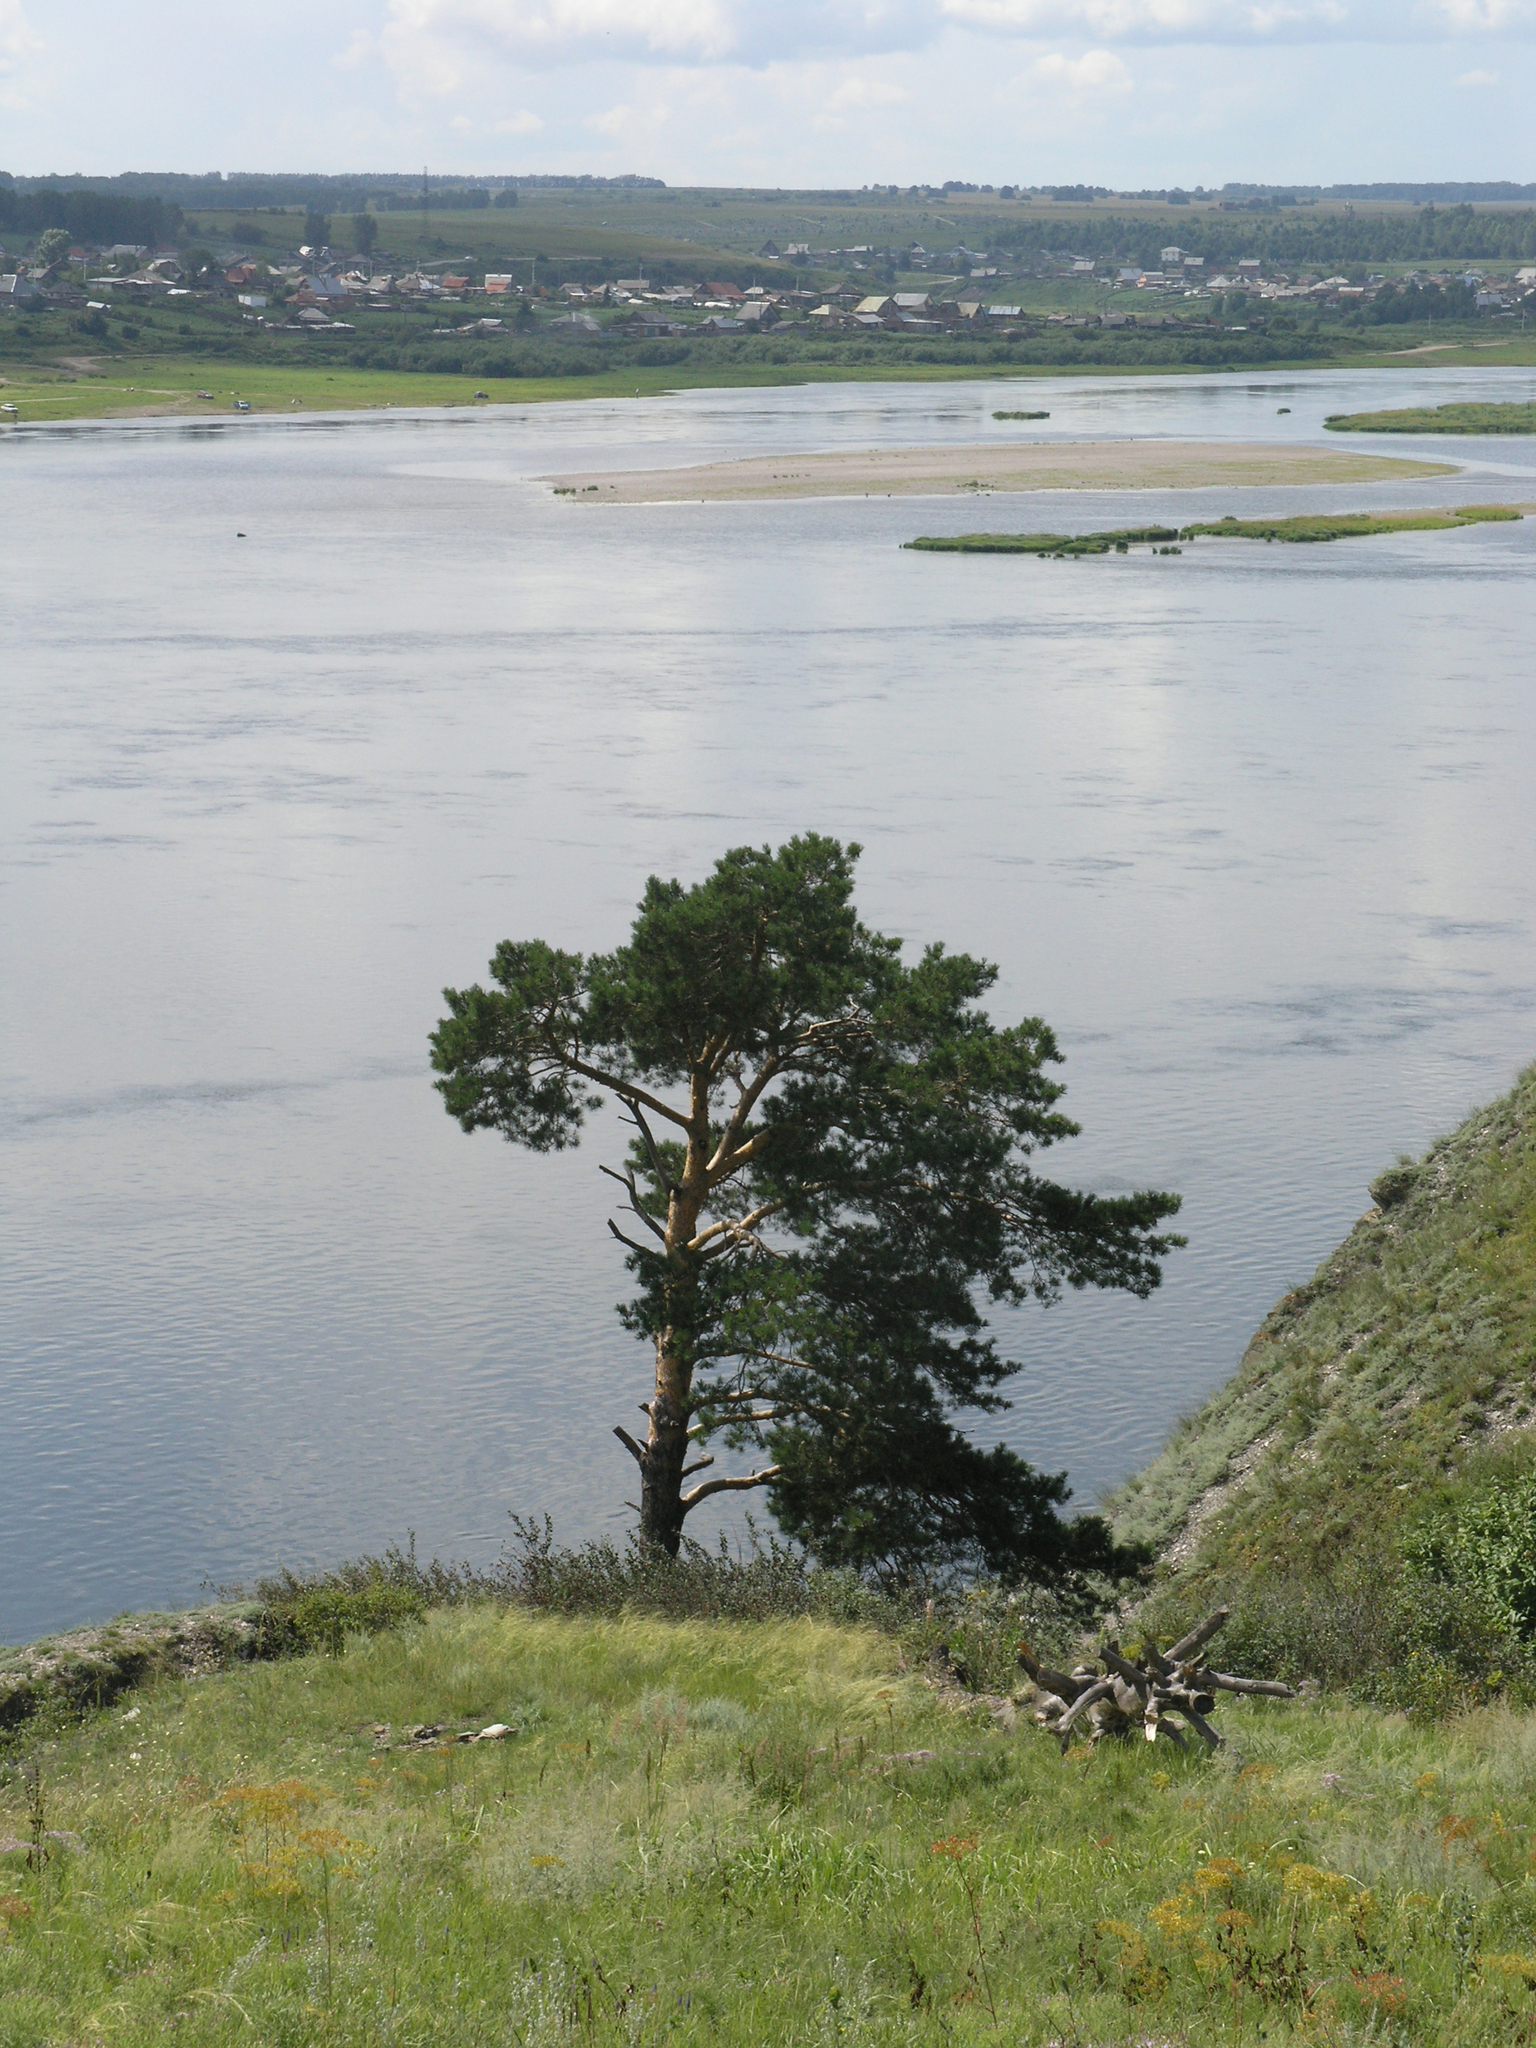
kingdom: Plantae
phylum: Tracheophyta
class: Pinopsida
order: Pinales
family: Pinaceae
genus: Pinus
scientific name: Pinus sylvestris
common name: Scots pine
